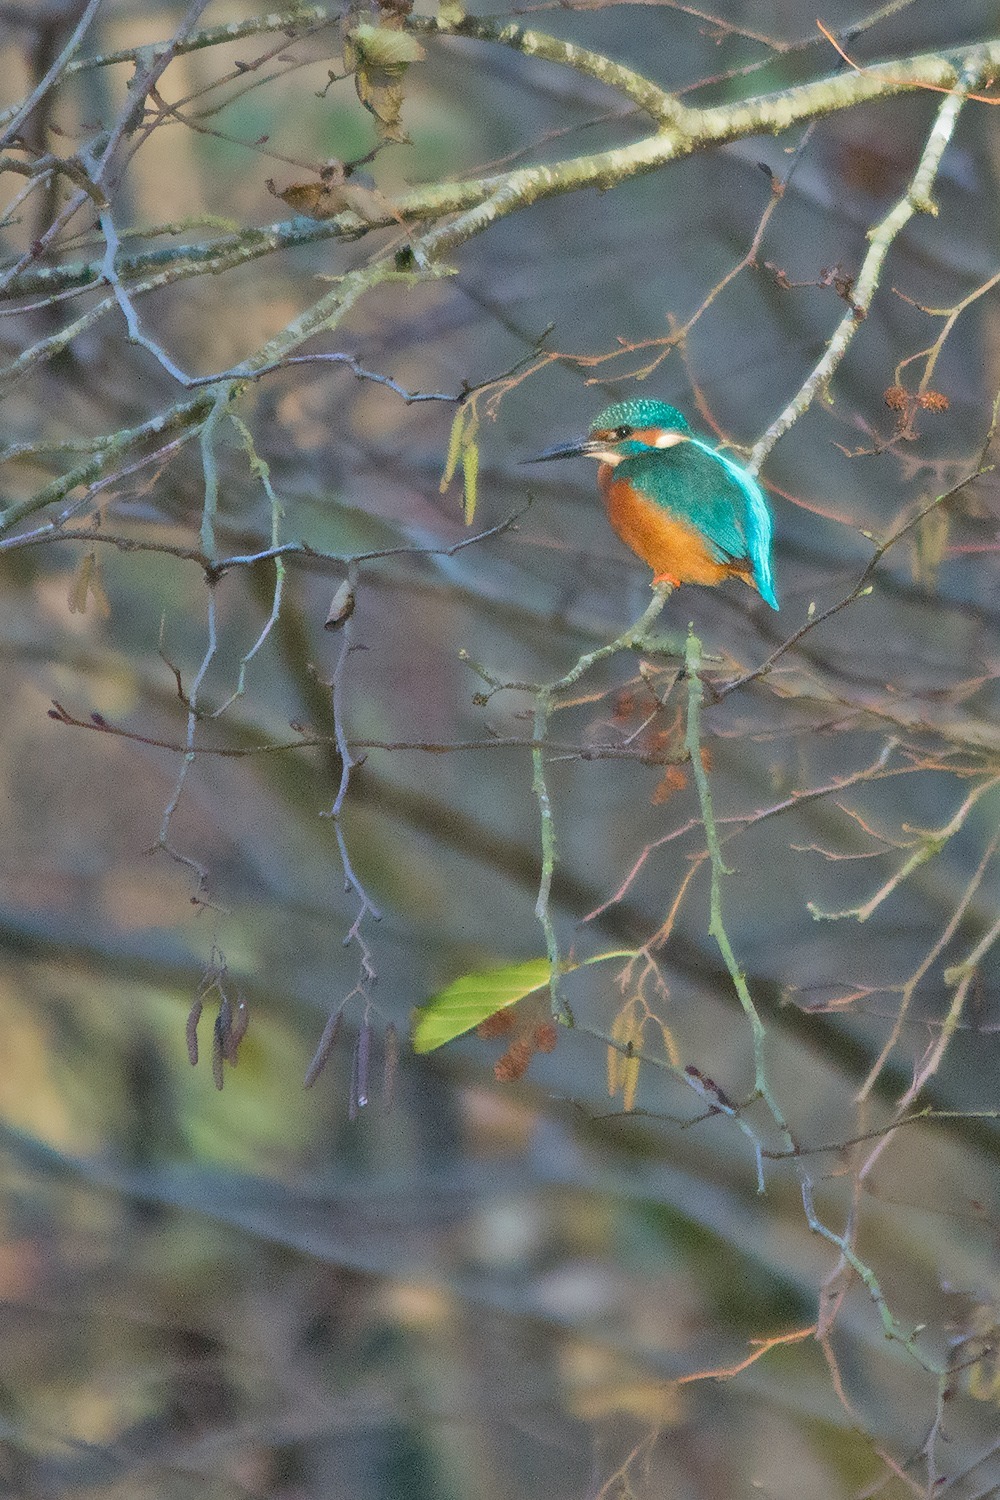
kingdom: Animalia
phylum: Chordata
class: Aves
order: Coraciiformes
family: Alcedinidae
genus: Alcedo
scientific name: Alcedo atthis
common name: Common kingfisher
